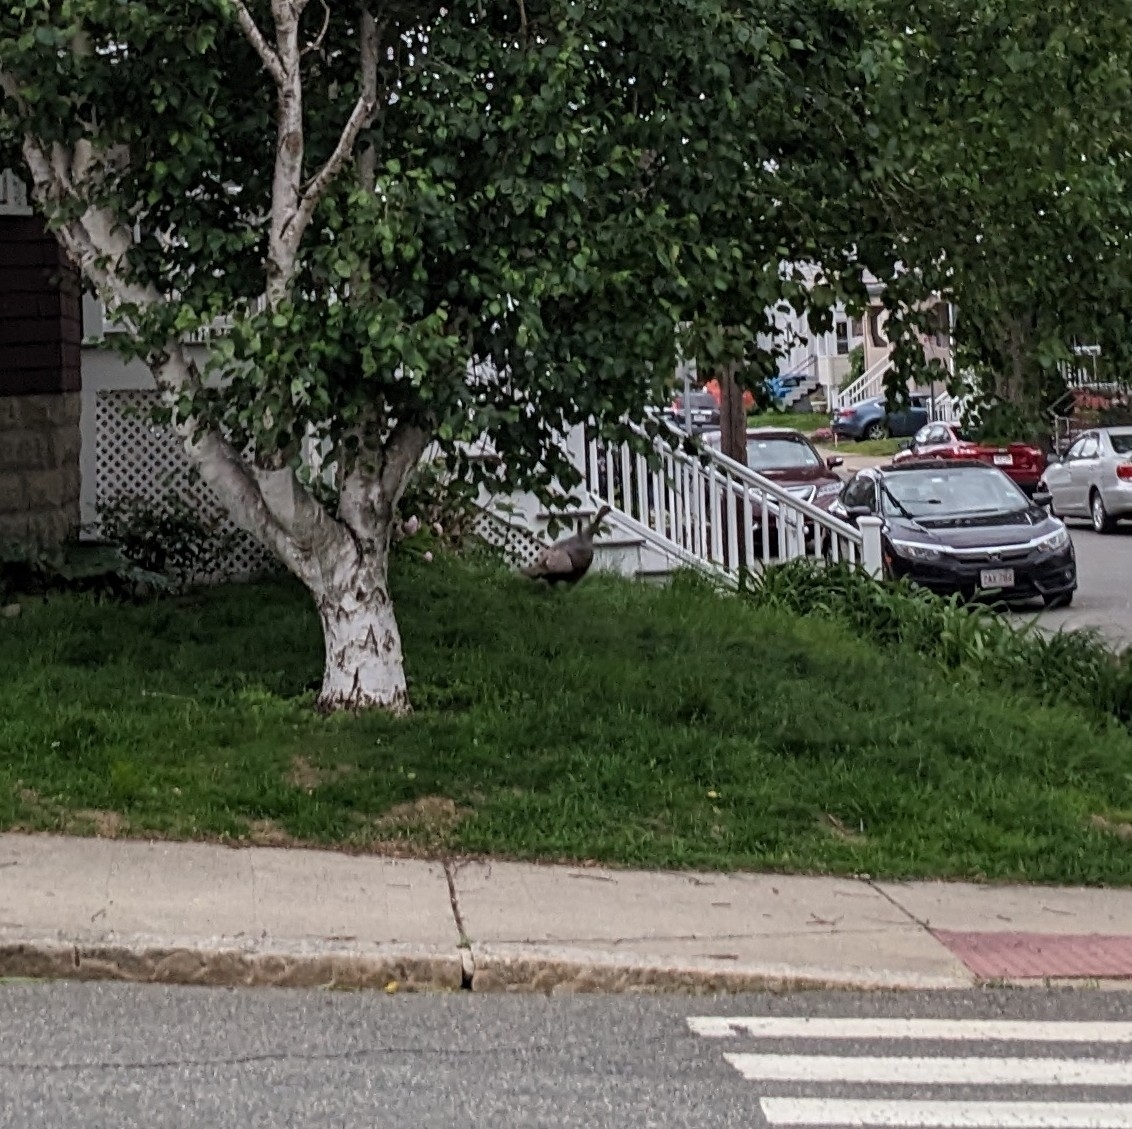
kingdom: Animalia
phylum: Chordata
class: Aves
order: Galliformes
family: Phasianidae
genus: Meleagris
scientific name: Meleagris gallopavo
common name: Wild turkey
